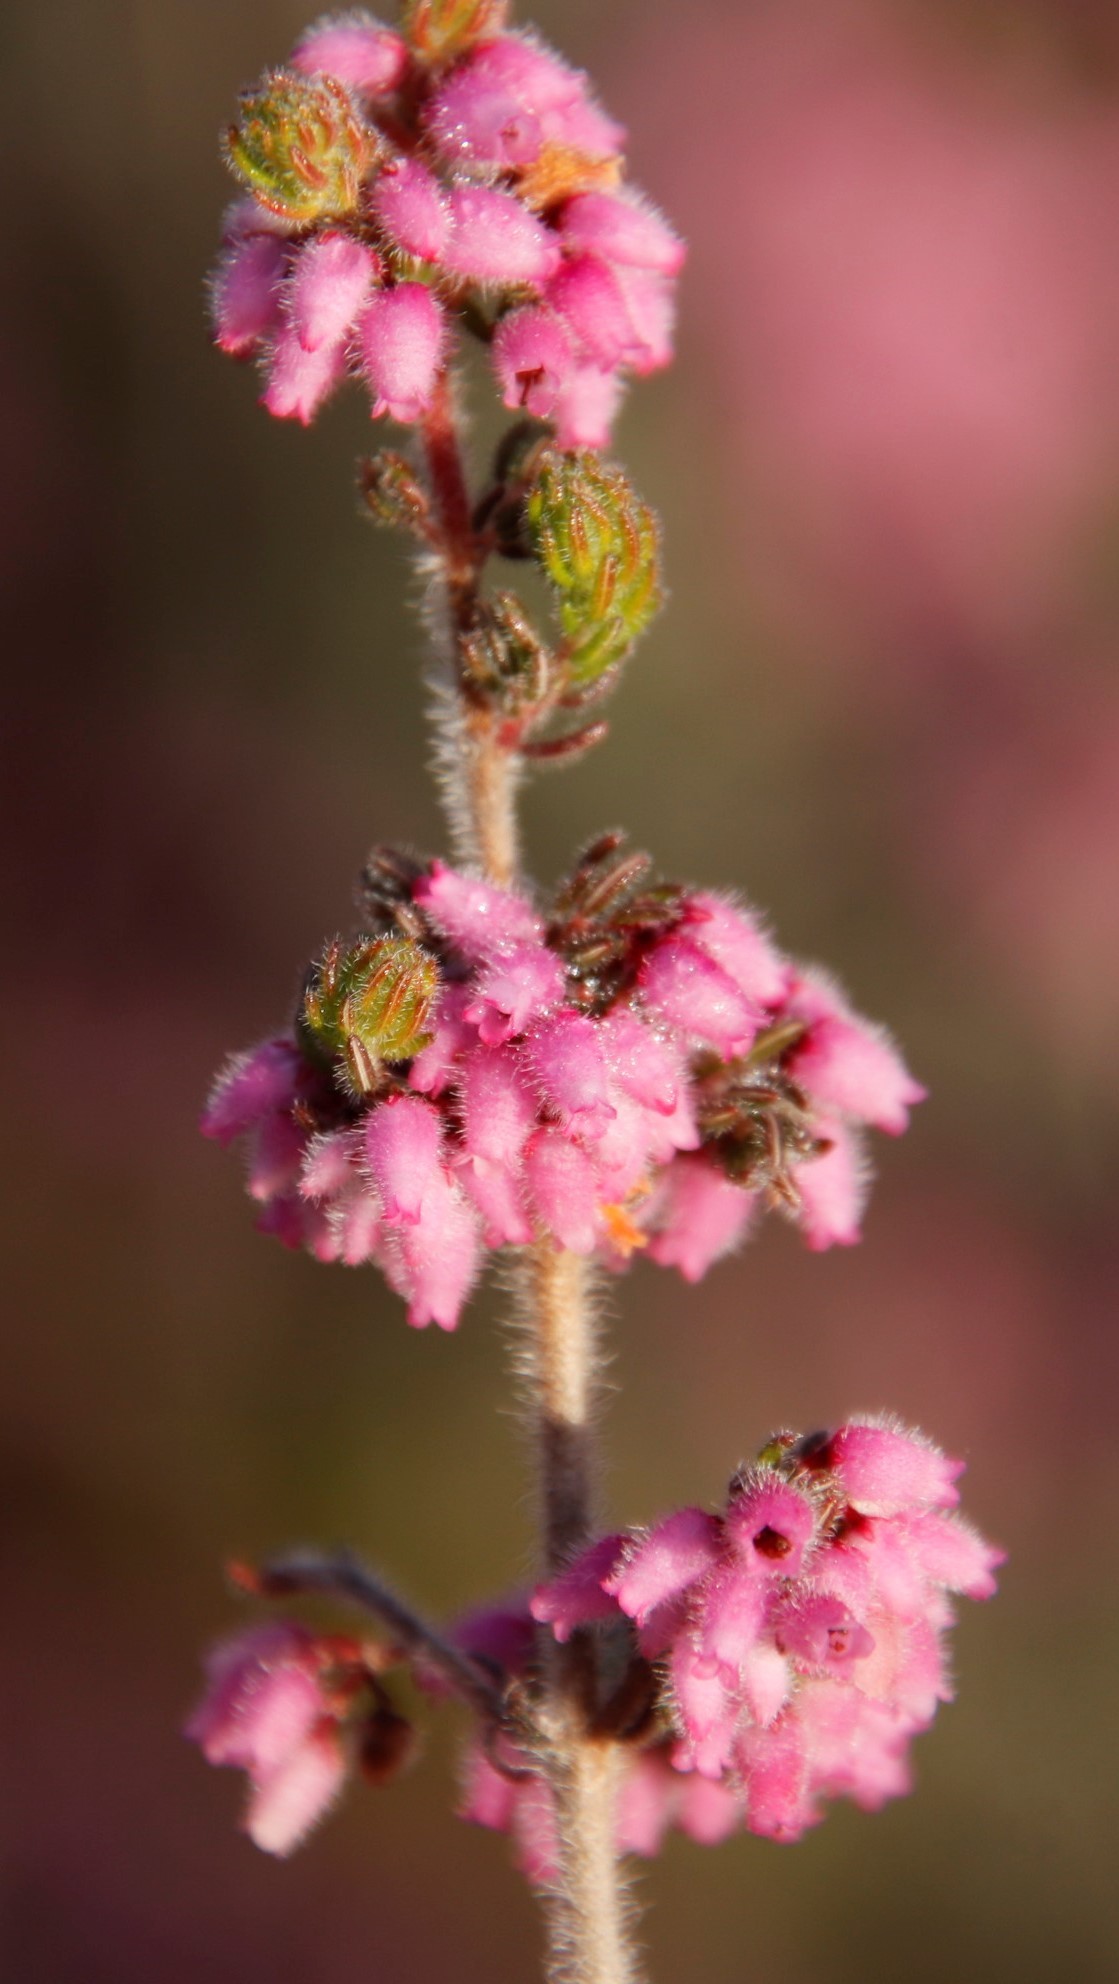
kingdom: Plantae
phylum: Tracheophyta
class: Magnoliopsida
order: Ericales
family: Ericaceae
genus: Erica
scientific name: Erica parviflora
